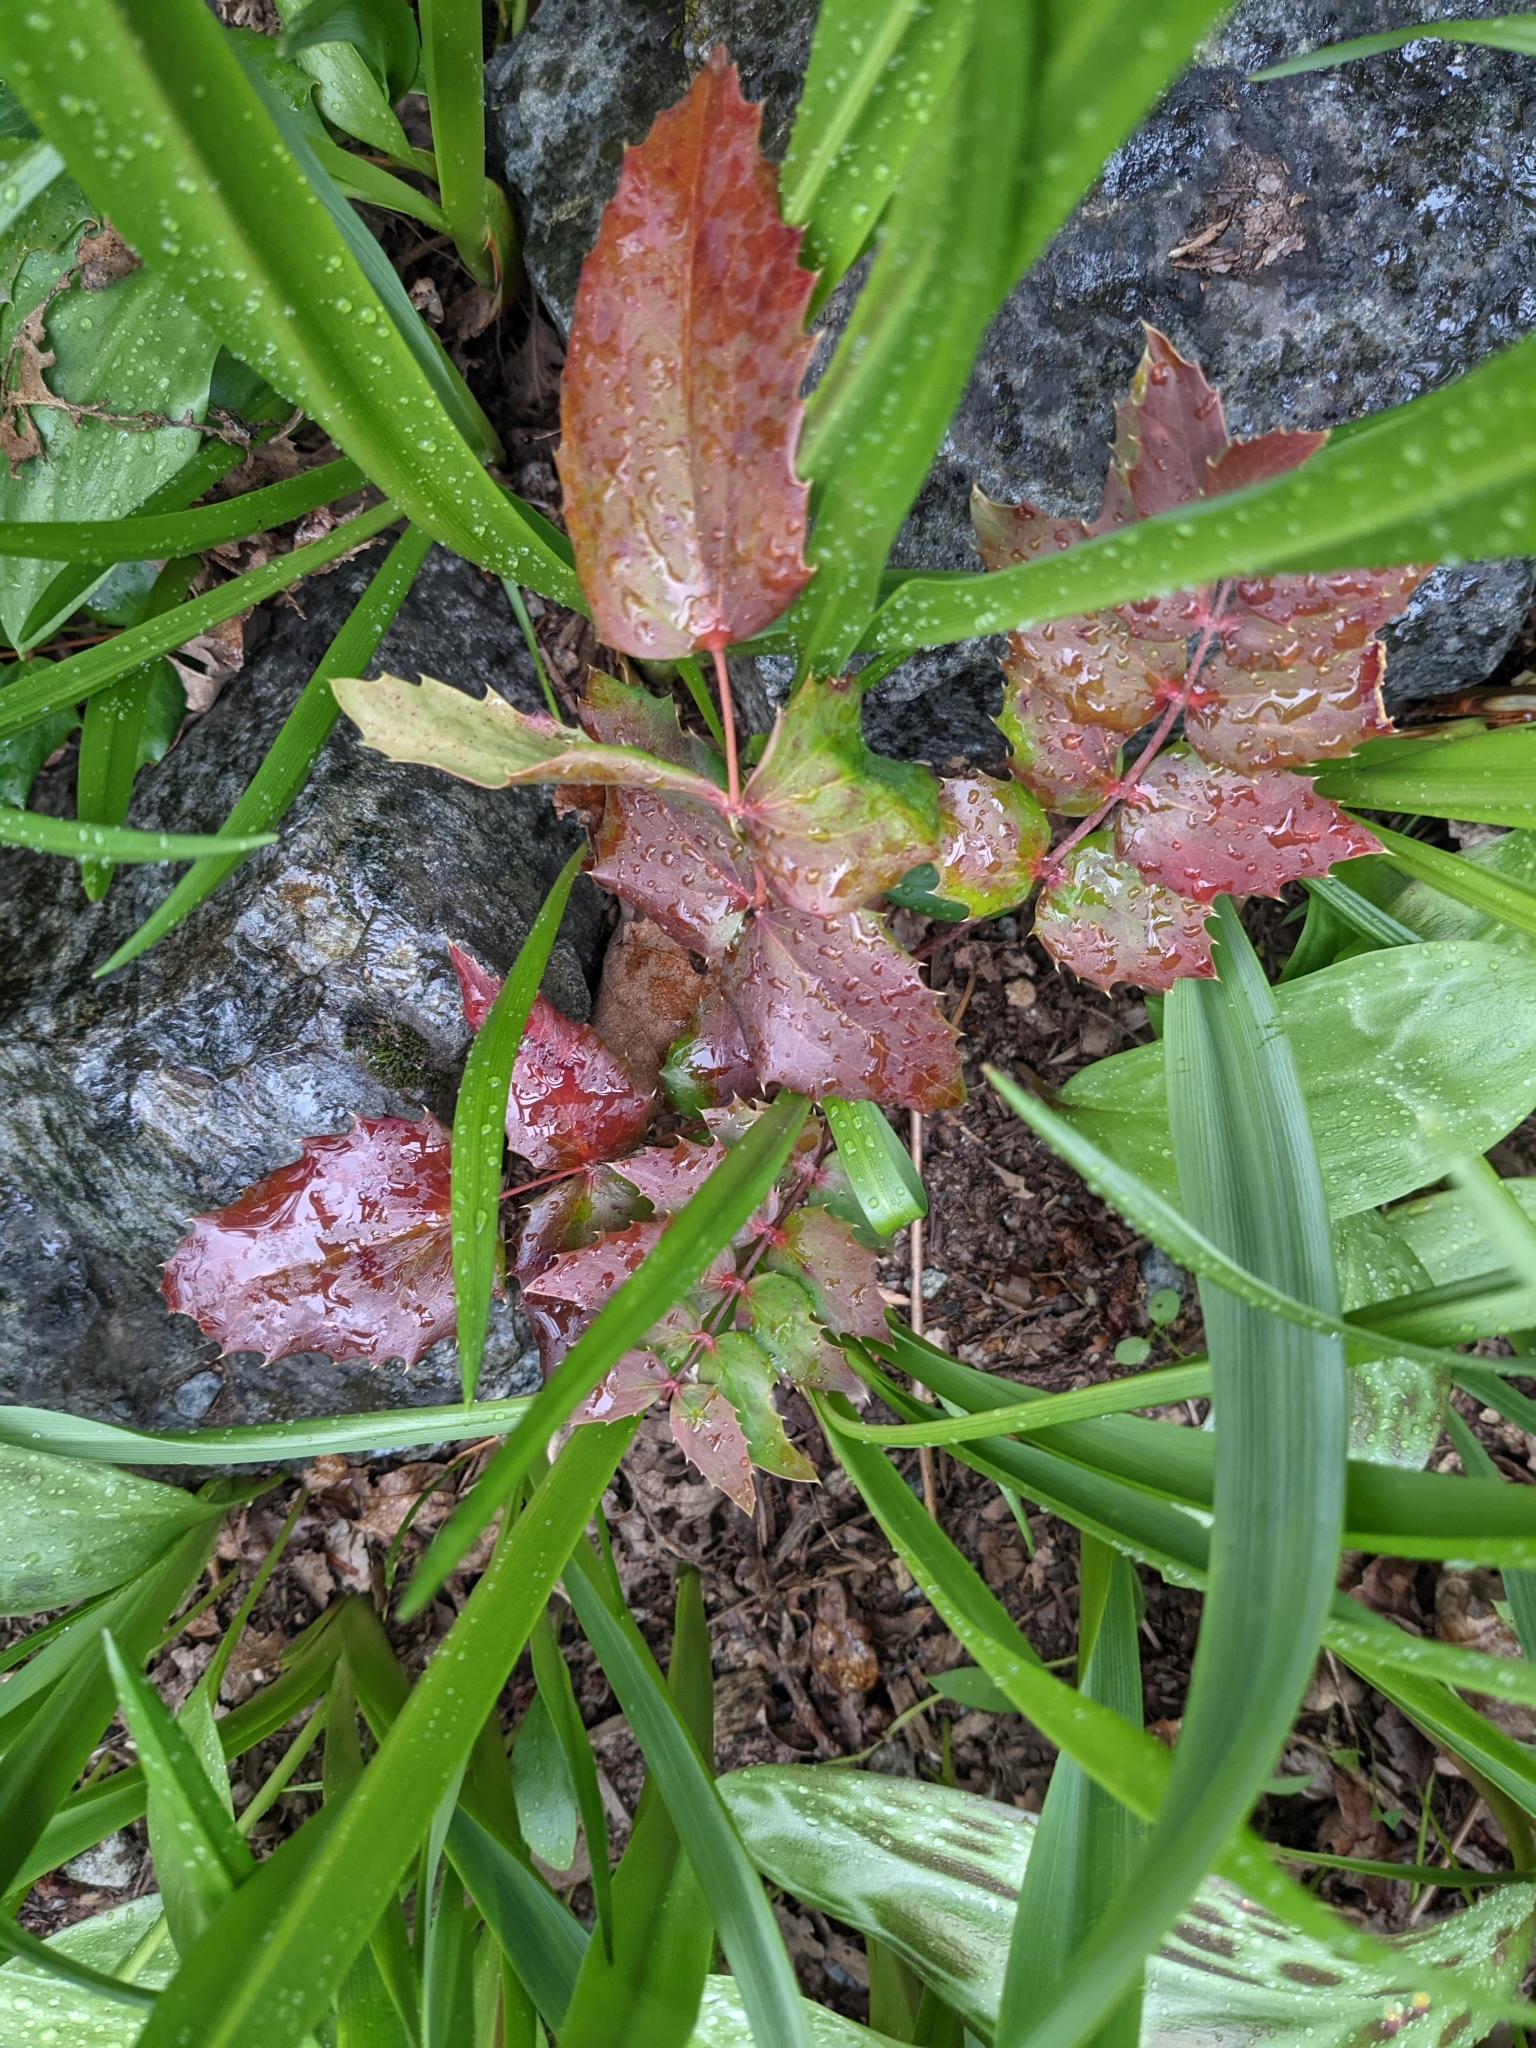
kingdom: Plantae
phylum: Tracheophyta
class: Magnoliopsida
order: Ranunculales
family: Berberidaceae
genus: Mahonia
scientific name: Mahonia nervosa
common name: Cascade oregon-grape
